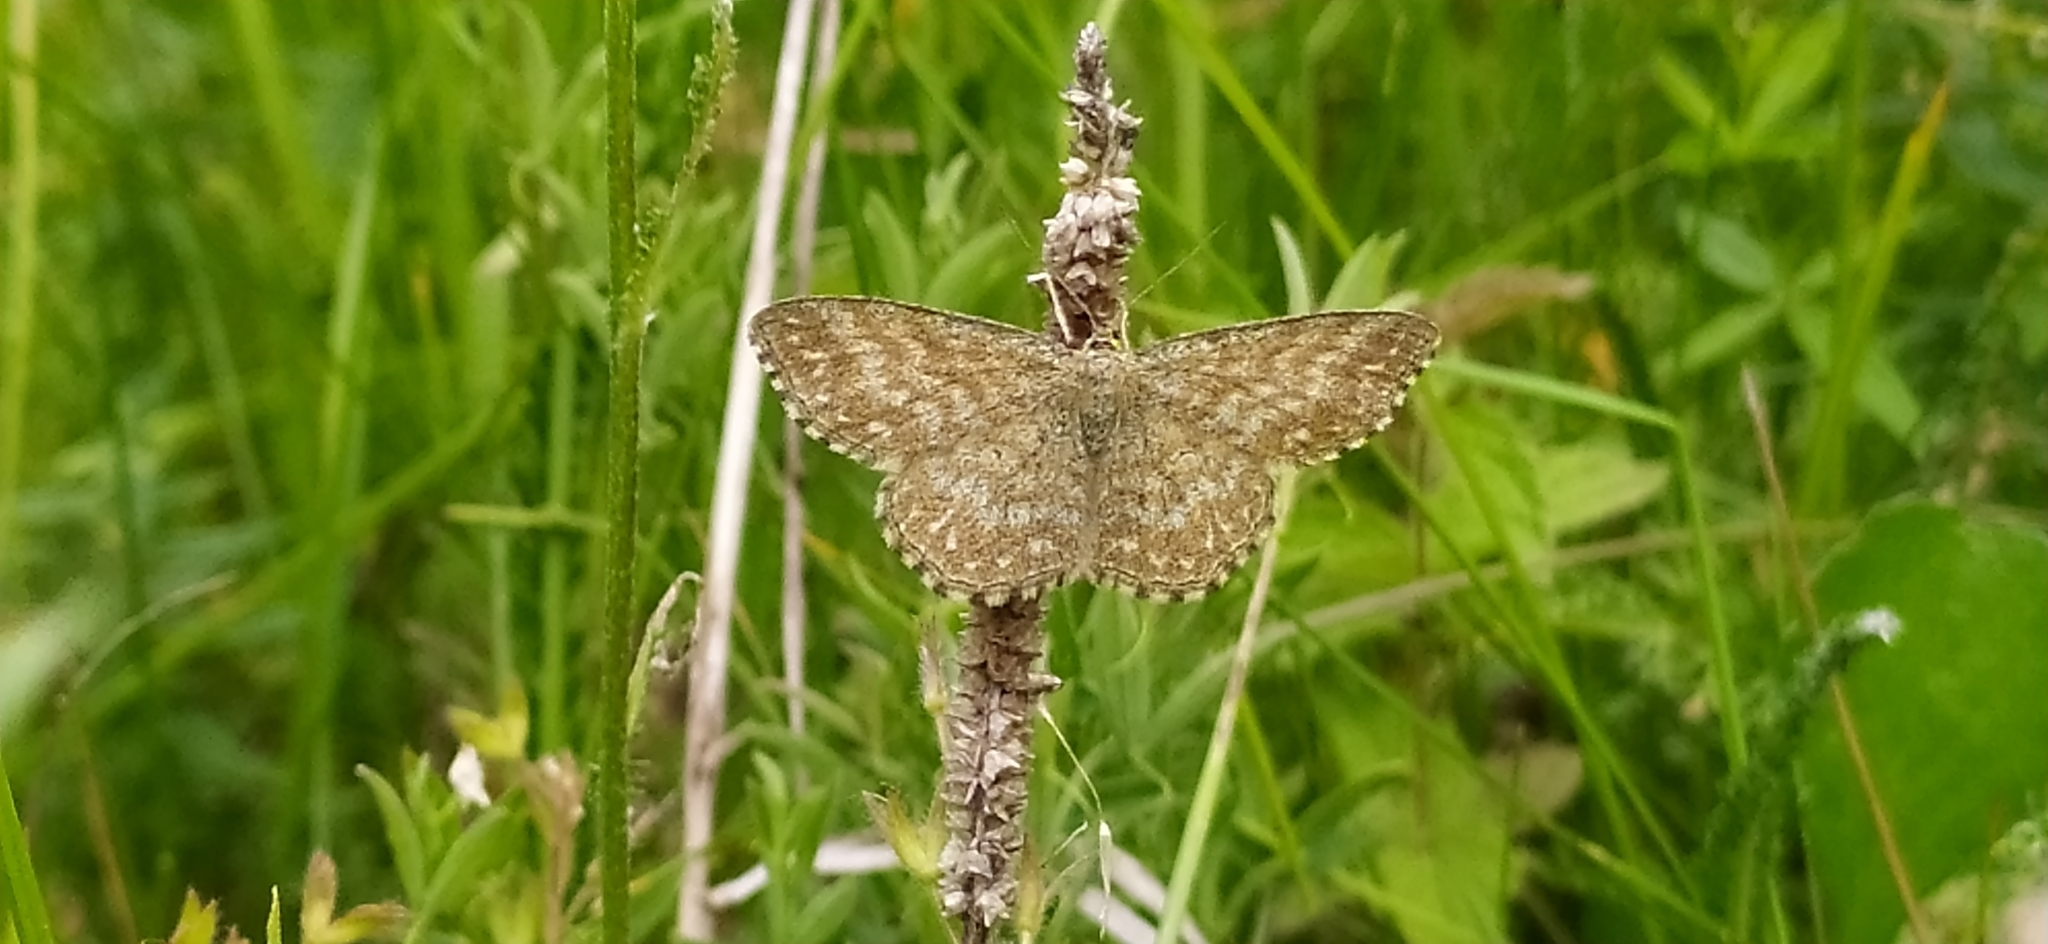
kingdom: Animalia
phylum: Arthropoda
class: Insecta
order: Lepidoptera
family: Geometridae
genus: Scopula
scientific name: Scopula immorata
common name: Lewes wave
